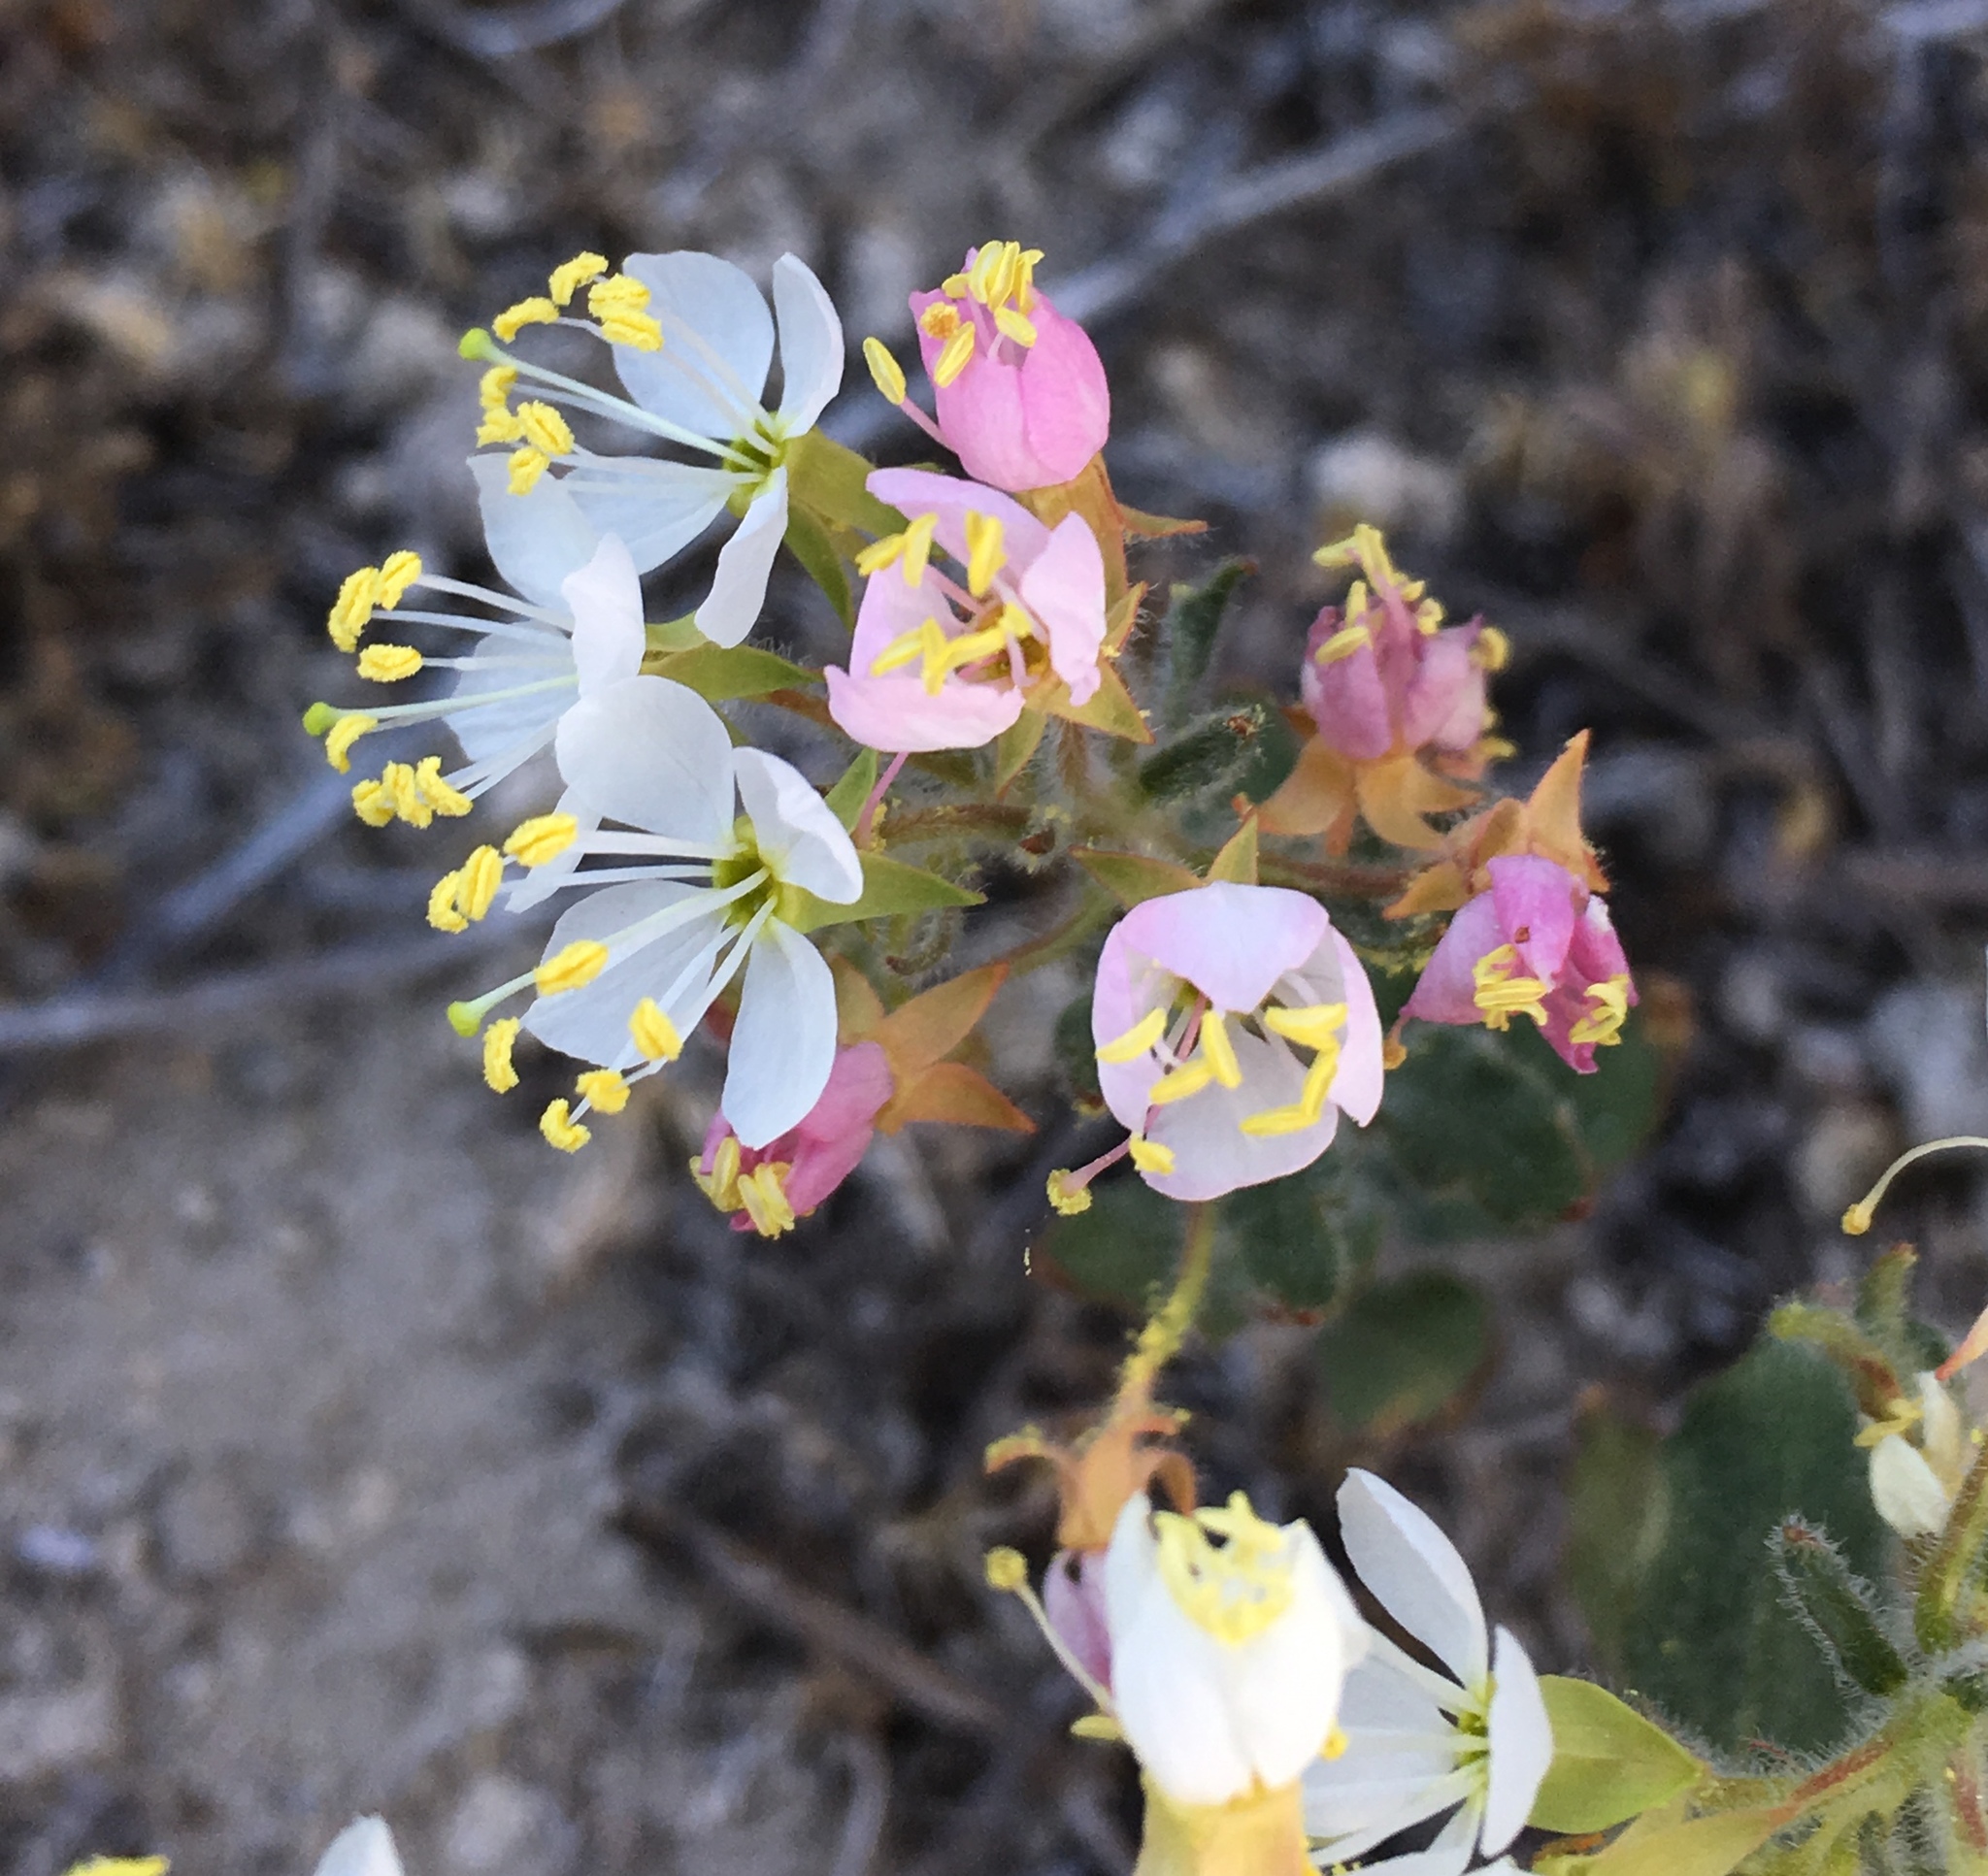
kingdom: Plantae
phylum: Tracheophyta
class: Magnoliopsida
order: Myrtales
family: Onagraceae
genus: Eremothera
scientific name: Eremothera boothii
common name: Booth's evening primrose
